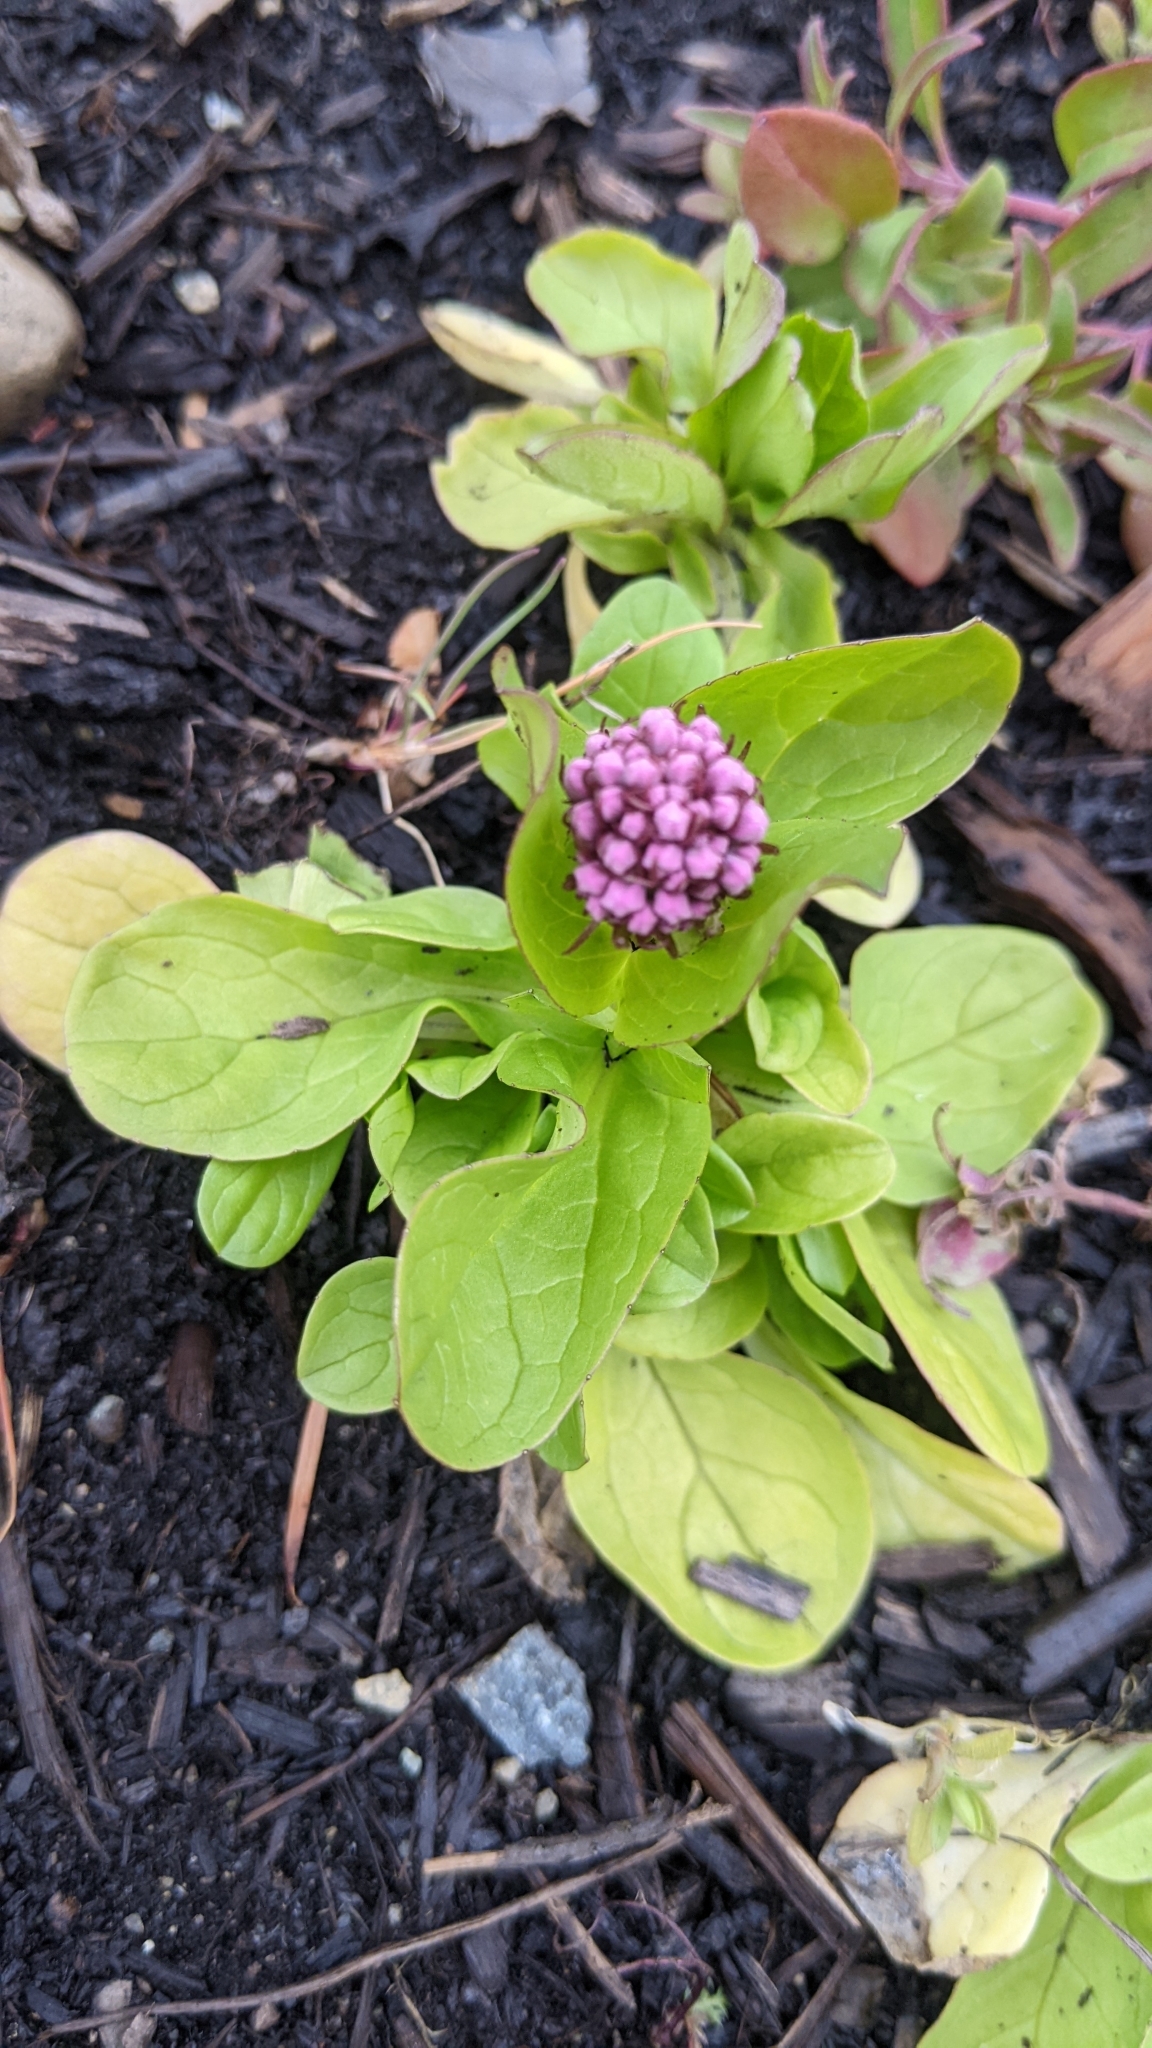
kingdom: Plantae
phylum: Tracheophyta
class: Magnoliopsida
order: Dipsacales
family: Caprifoliaceae
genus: Plectritis
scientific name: Plectritis congesta
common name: Pink plectritis
